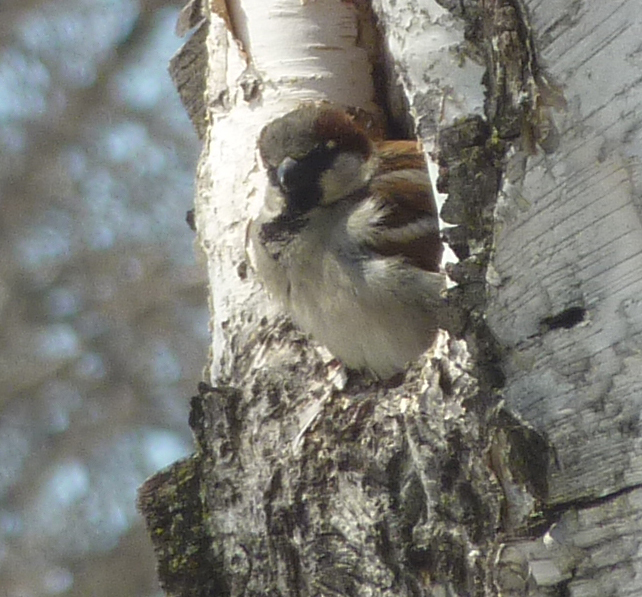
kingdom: Animalia
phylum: Chordata
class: Aves
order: Passeriformes
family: Passeridae
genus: Passer
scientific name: Passer domesticus
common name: House sparrow
